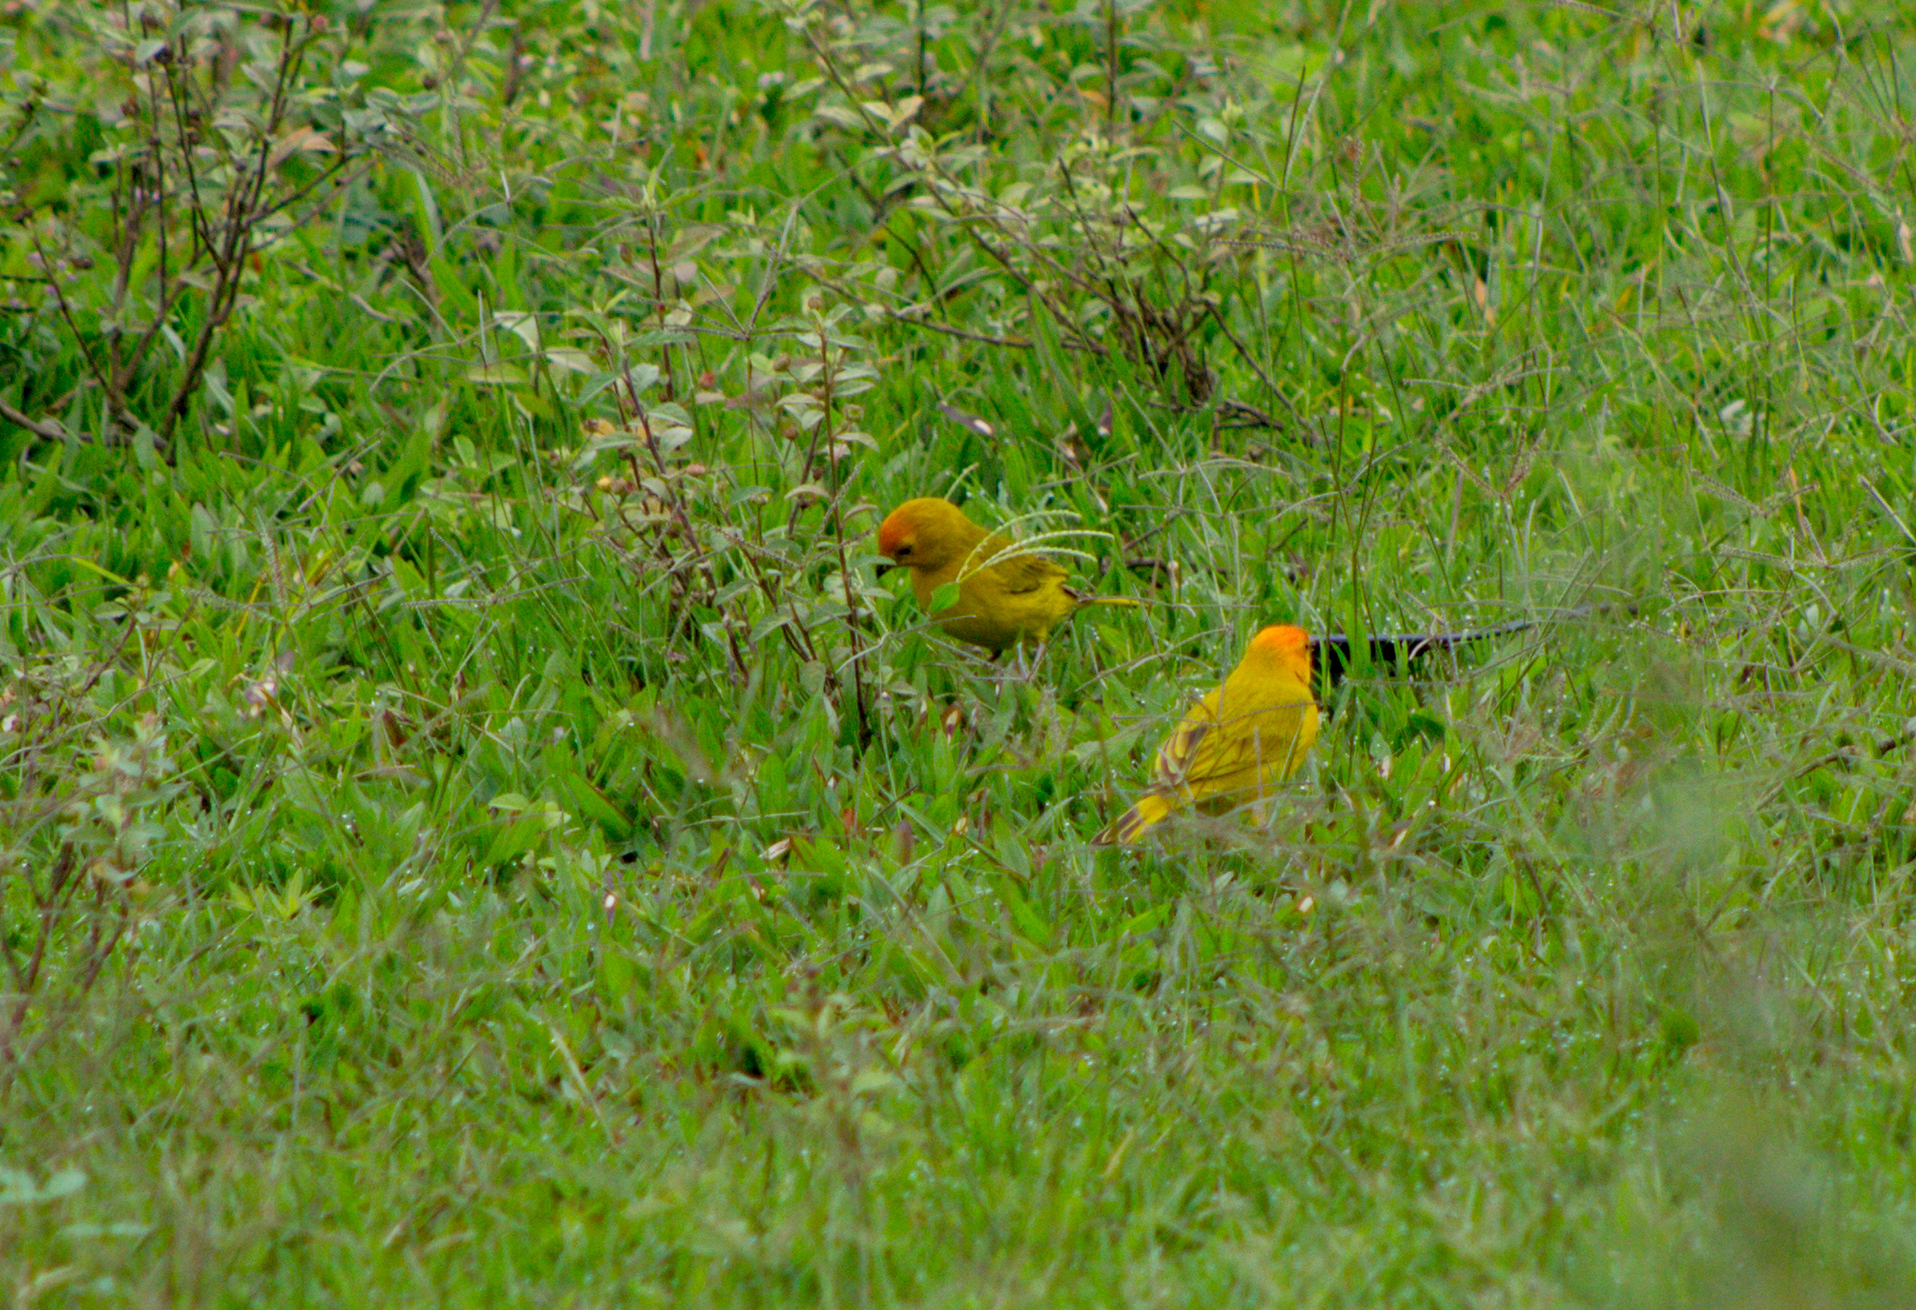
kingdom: Animalia
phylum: Chordata
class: Aves
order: Passeriformes
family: Thraupidae
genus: Sicalis
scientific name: Sicalis flaveola
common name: Saffron finch
